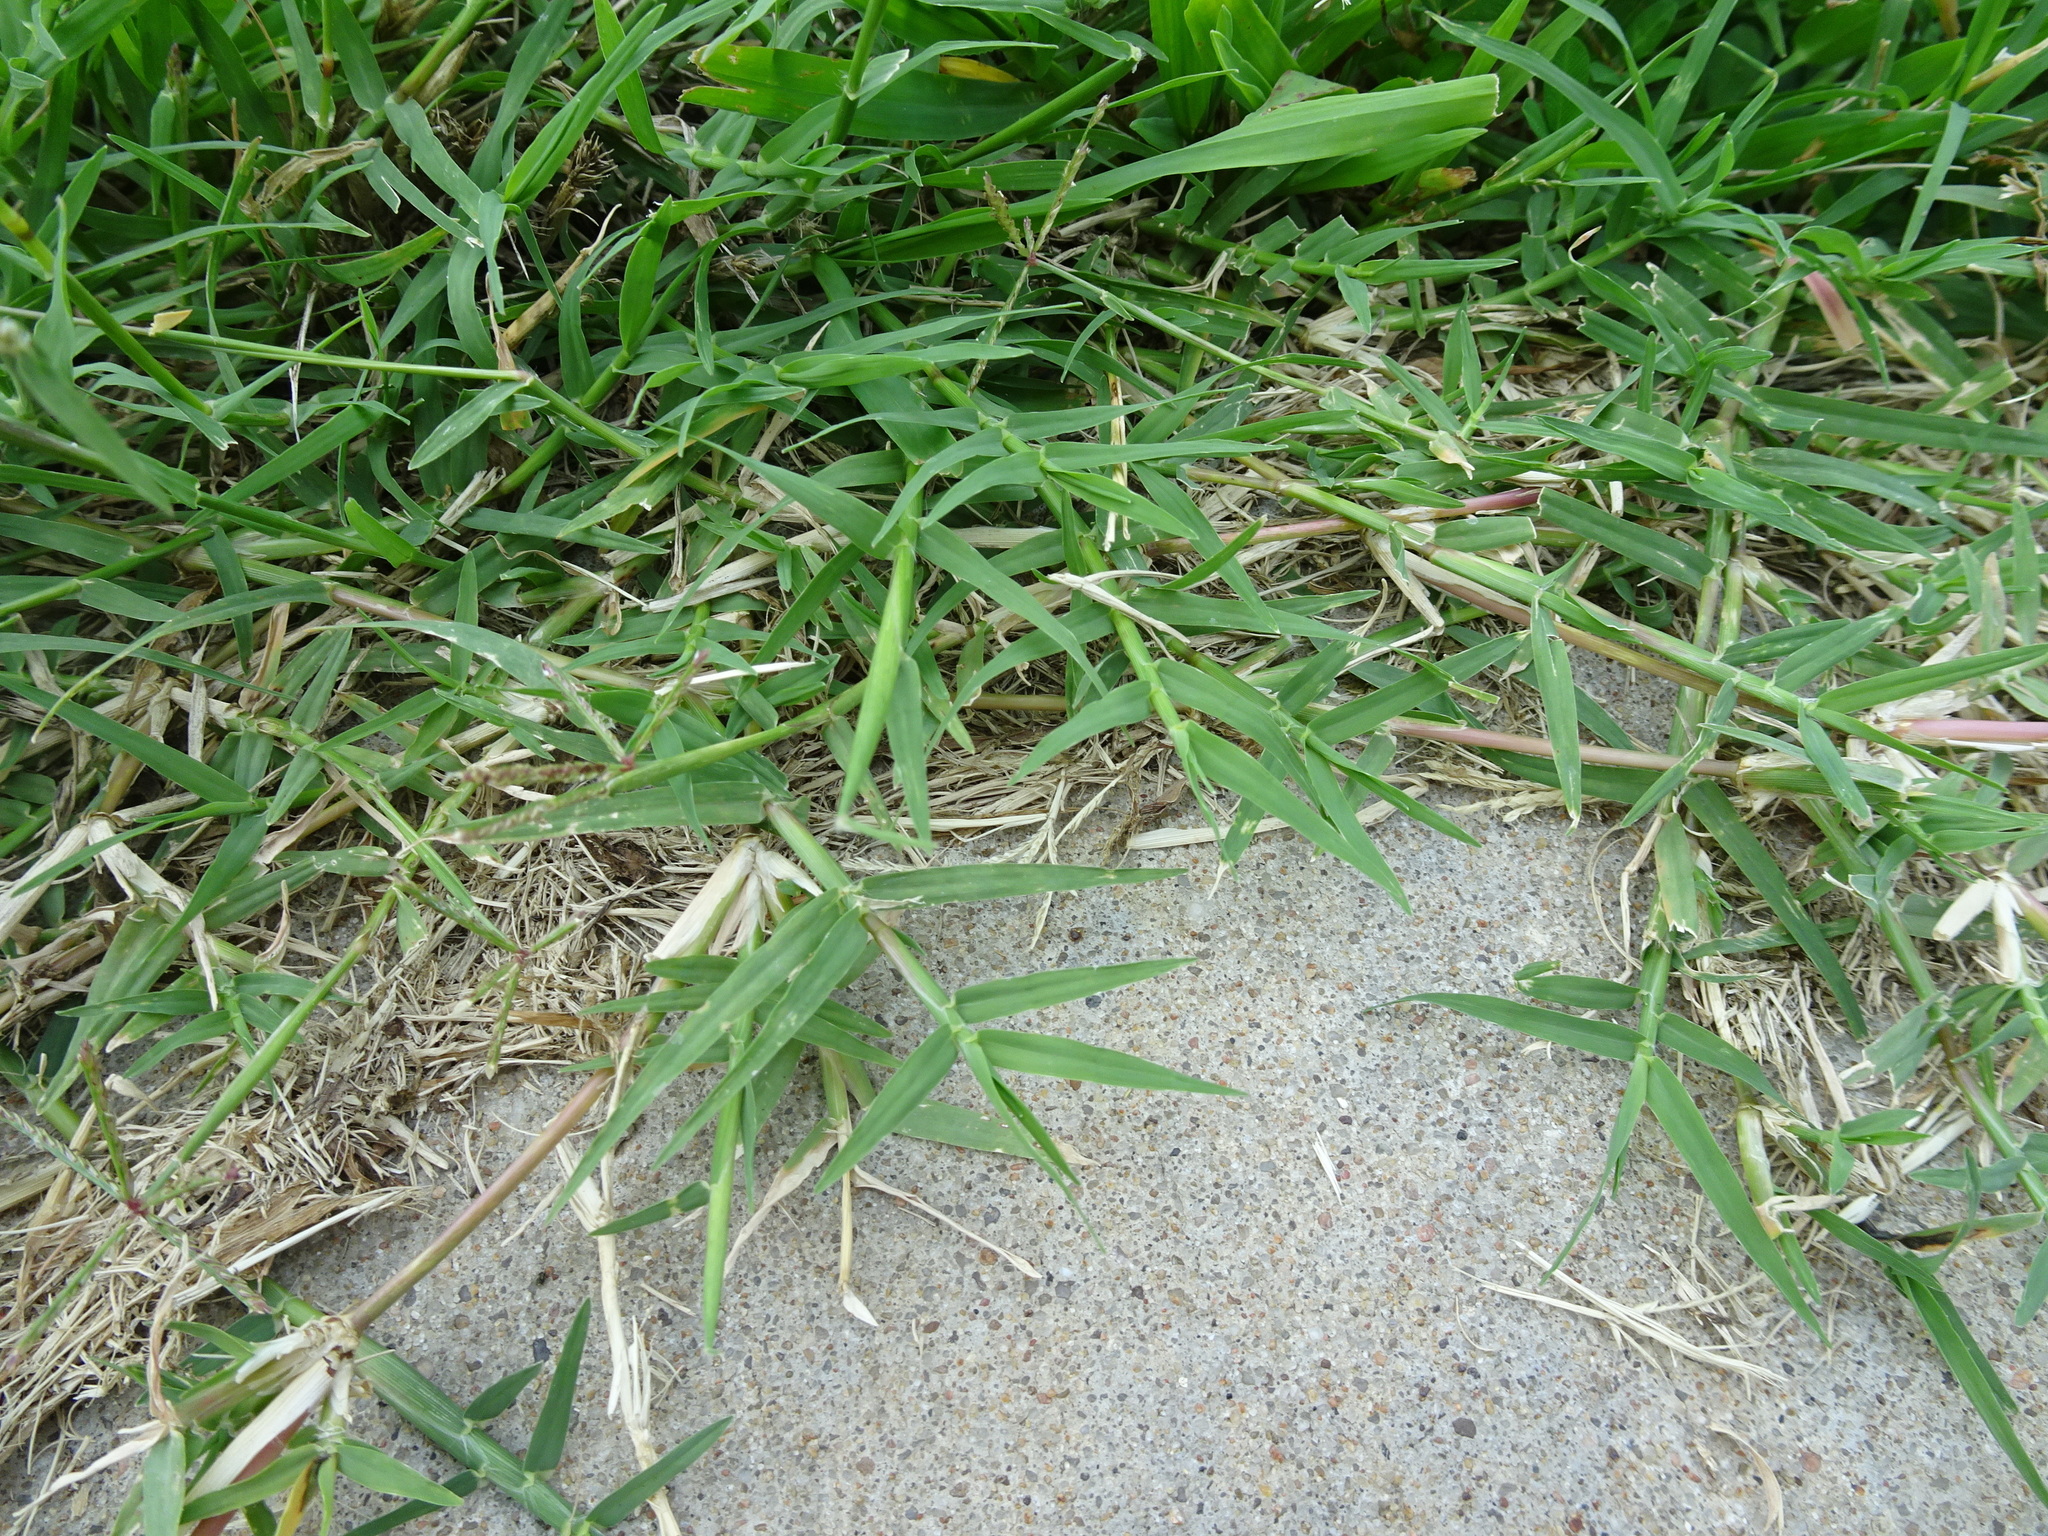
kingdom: Plantae
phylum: Tracheophyta
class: Liliopsida
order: Poales
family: Poaceae
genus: Cynodon
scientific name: Cynodon dactylon
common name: Bermuda grass
